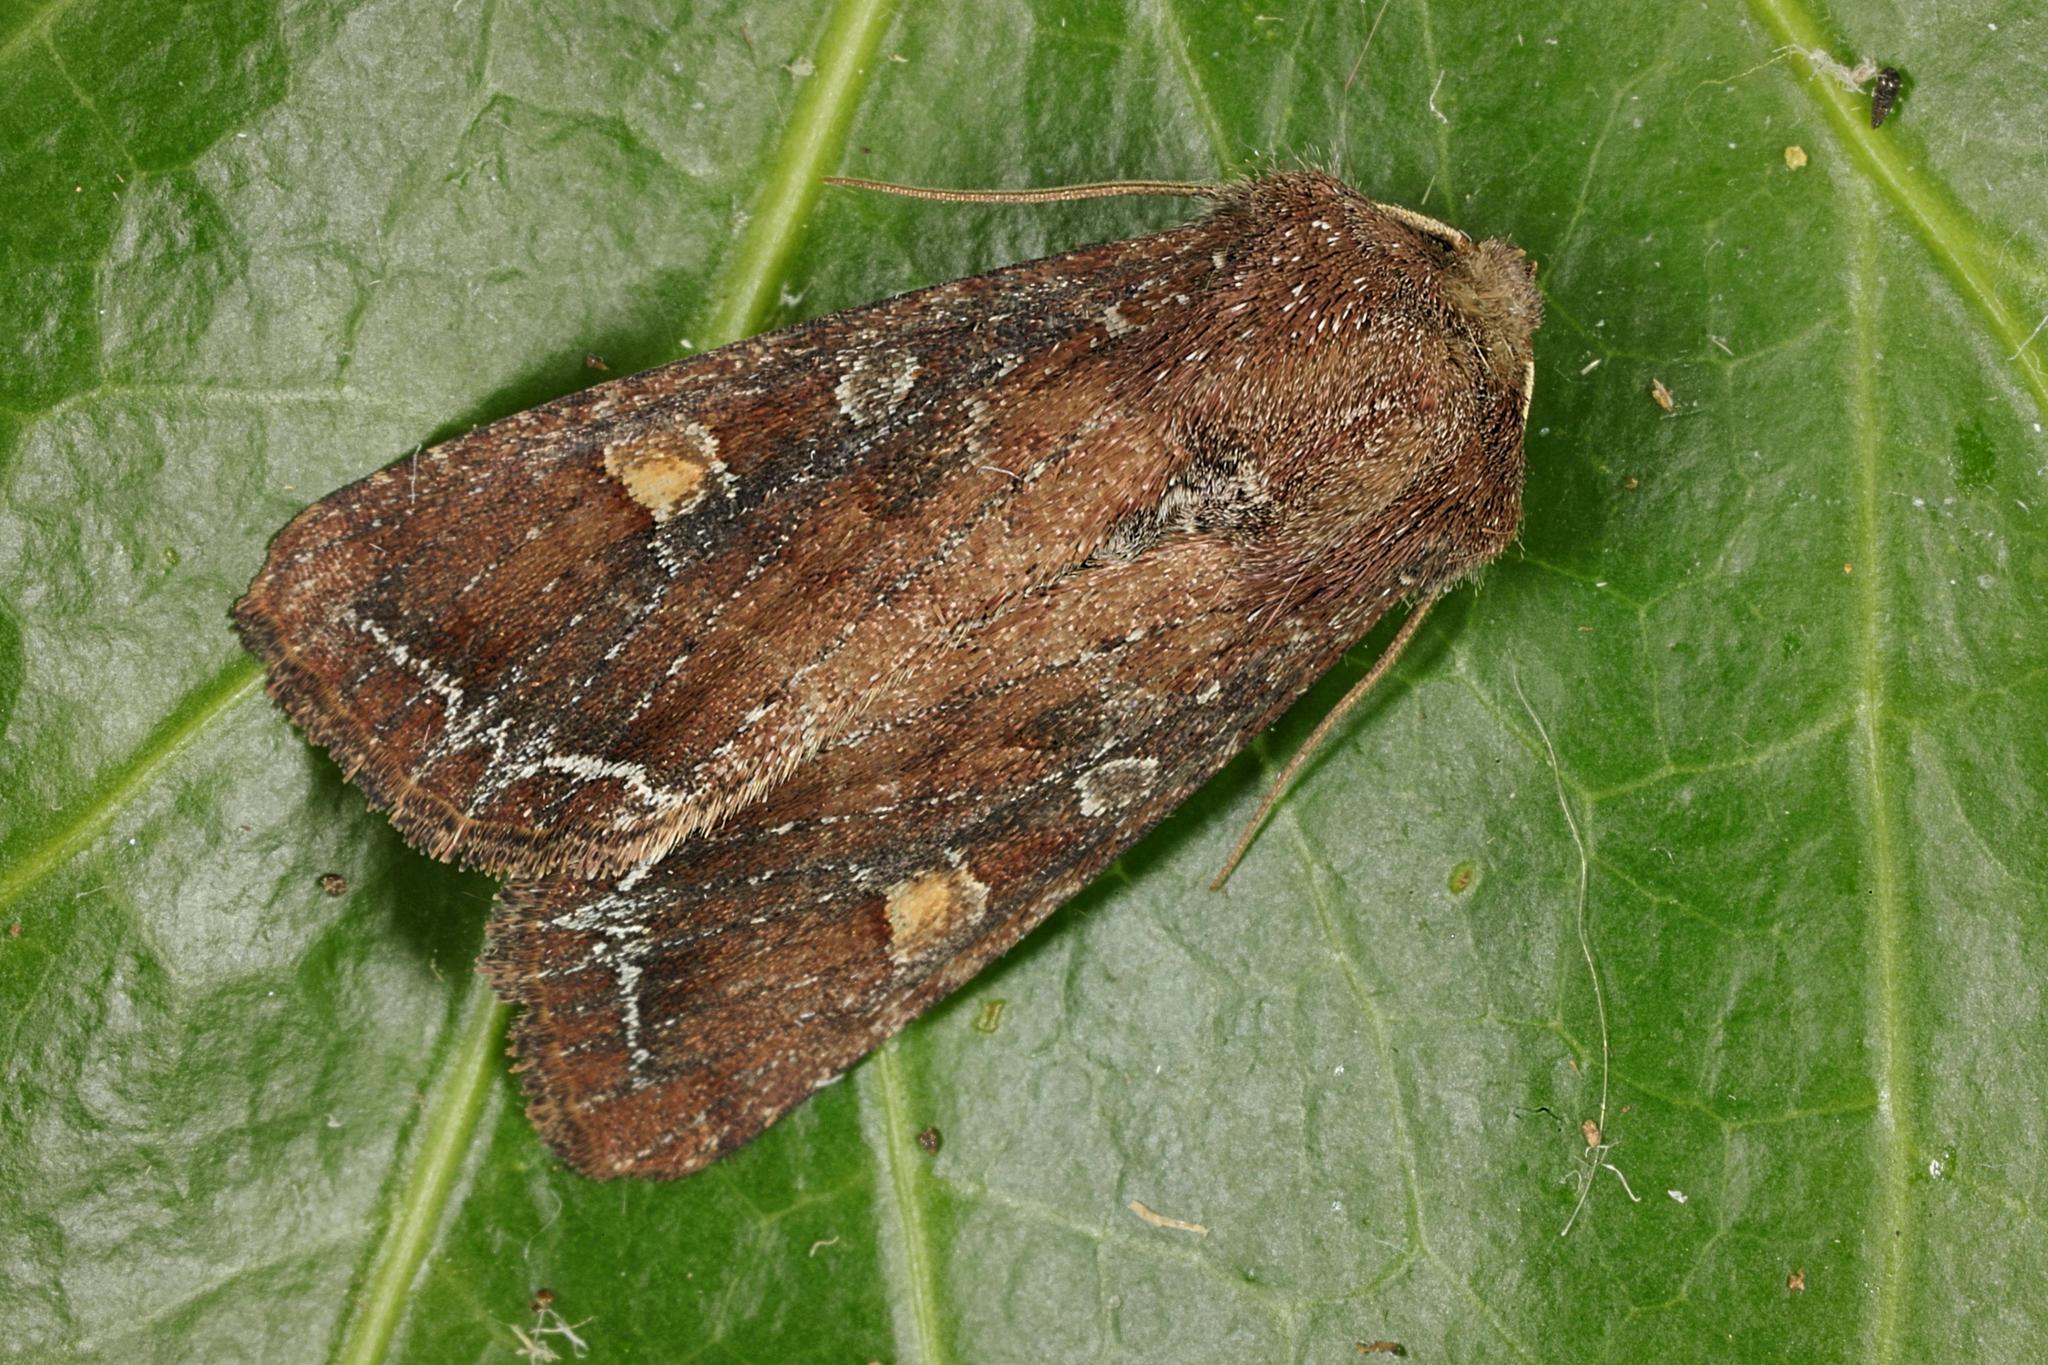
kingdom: Animalia
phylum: Arthropoda
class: Insecta
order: Lepidoptera
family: Noctuidae
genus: Lacanobia
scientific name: Lacanobia oleracea
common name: Bright-line brown-eye
